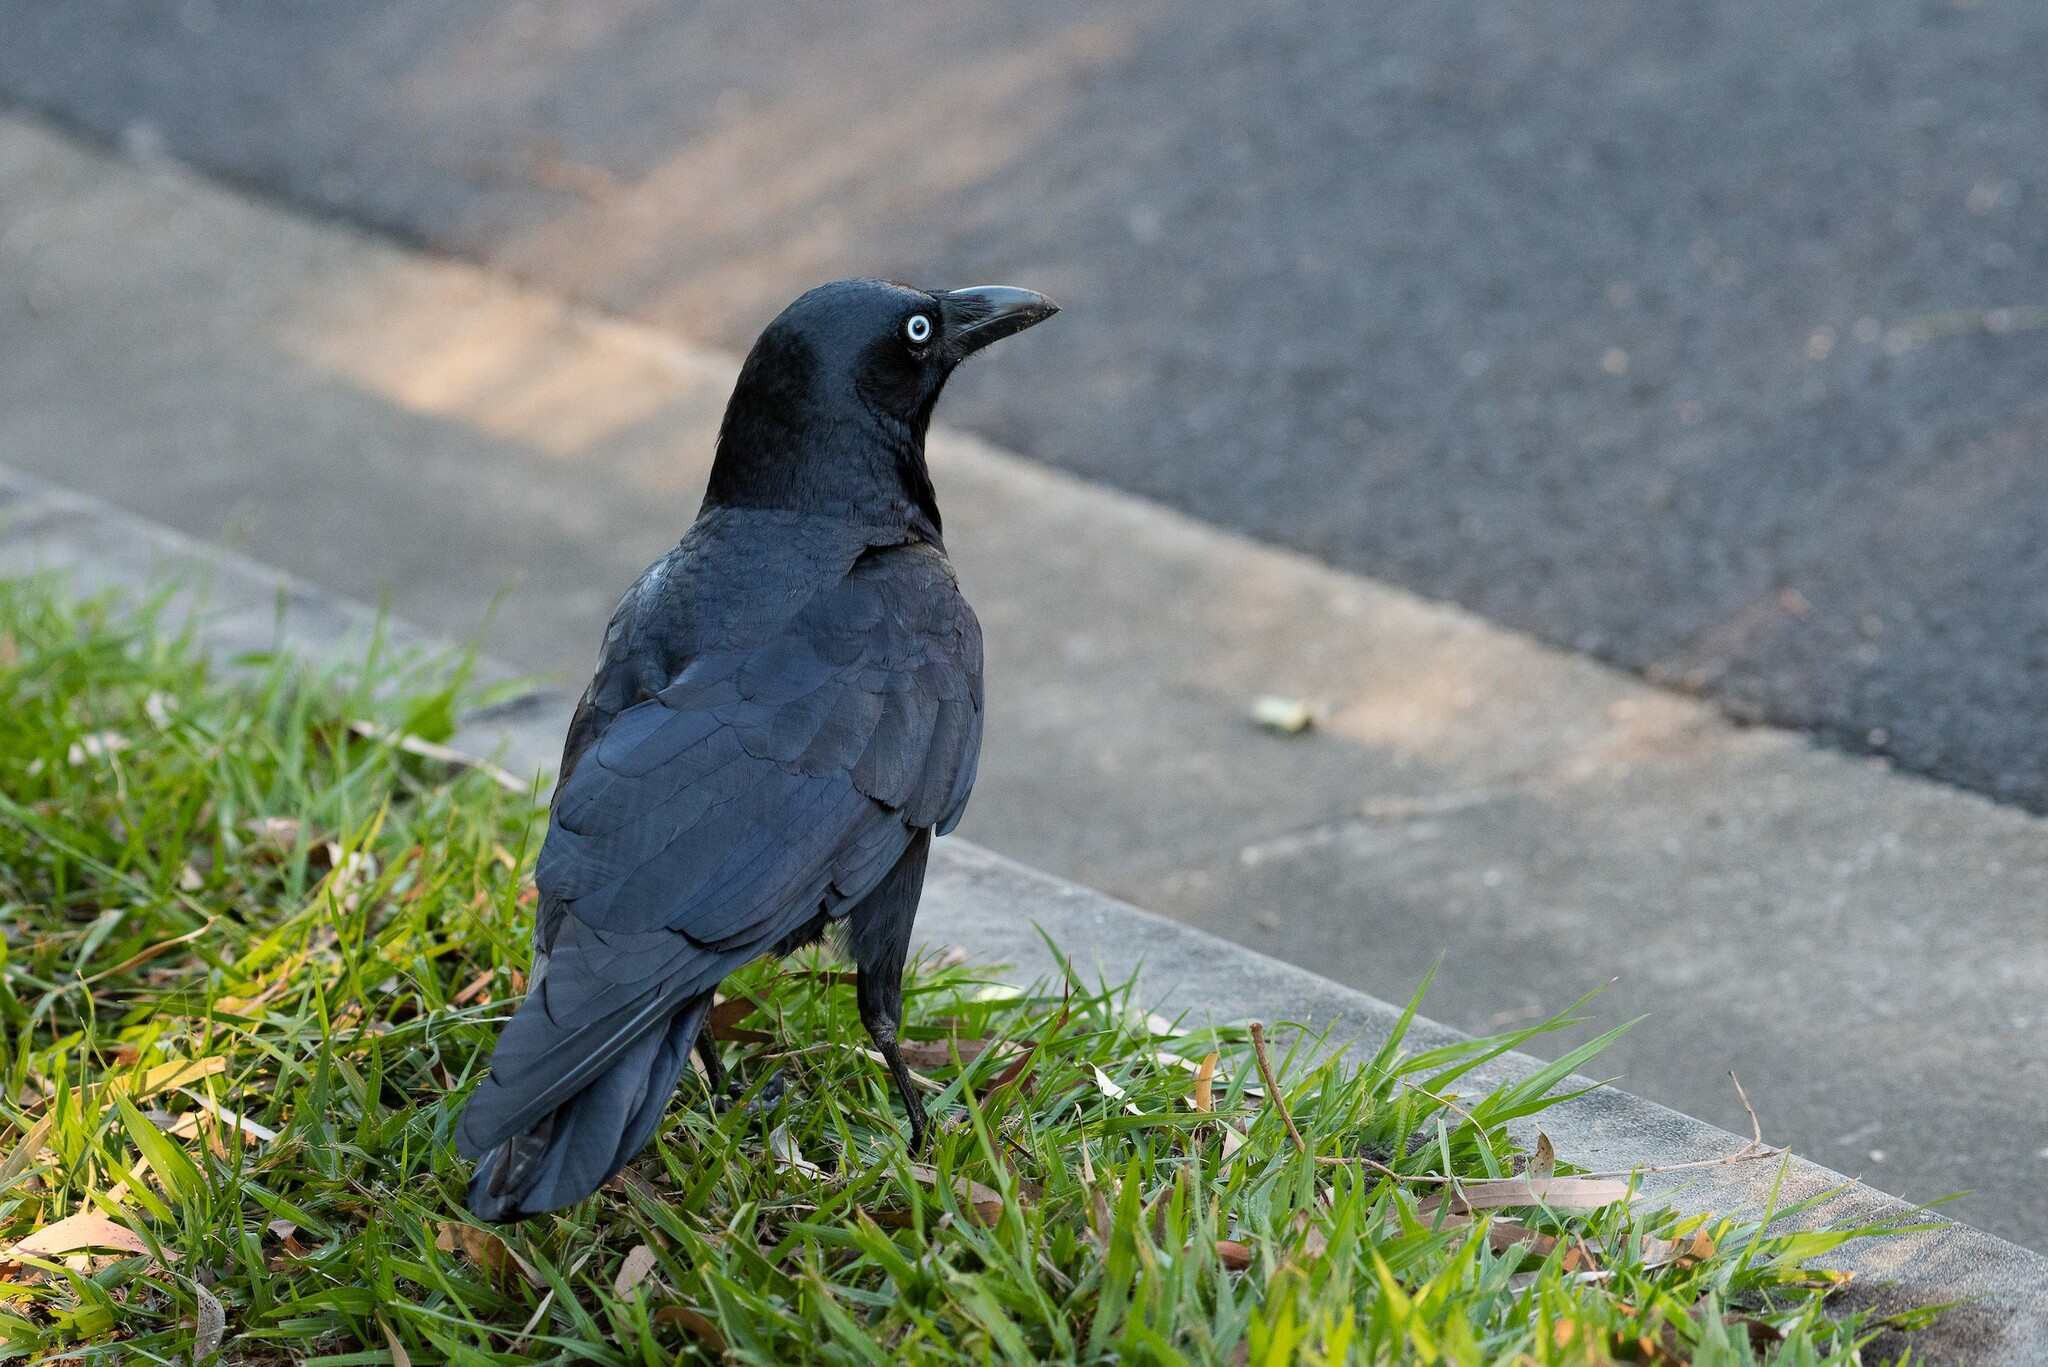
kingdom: Animalia
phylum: Chordata
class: Aves
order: Passeriformes
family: Corvidae
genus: Corvus
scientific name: Corvus orru
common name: Torresian crow
